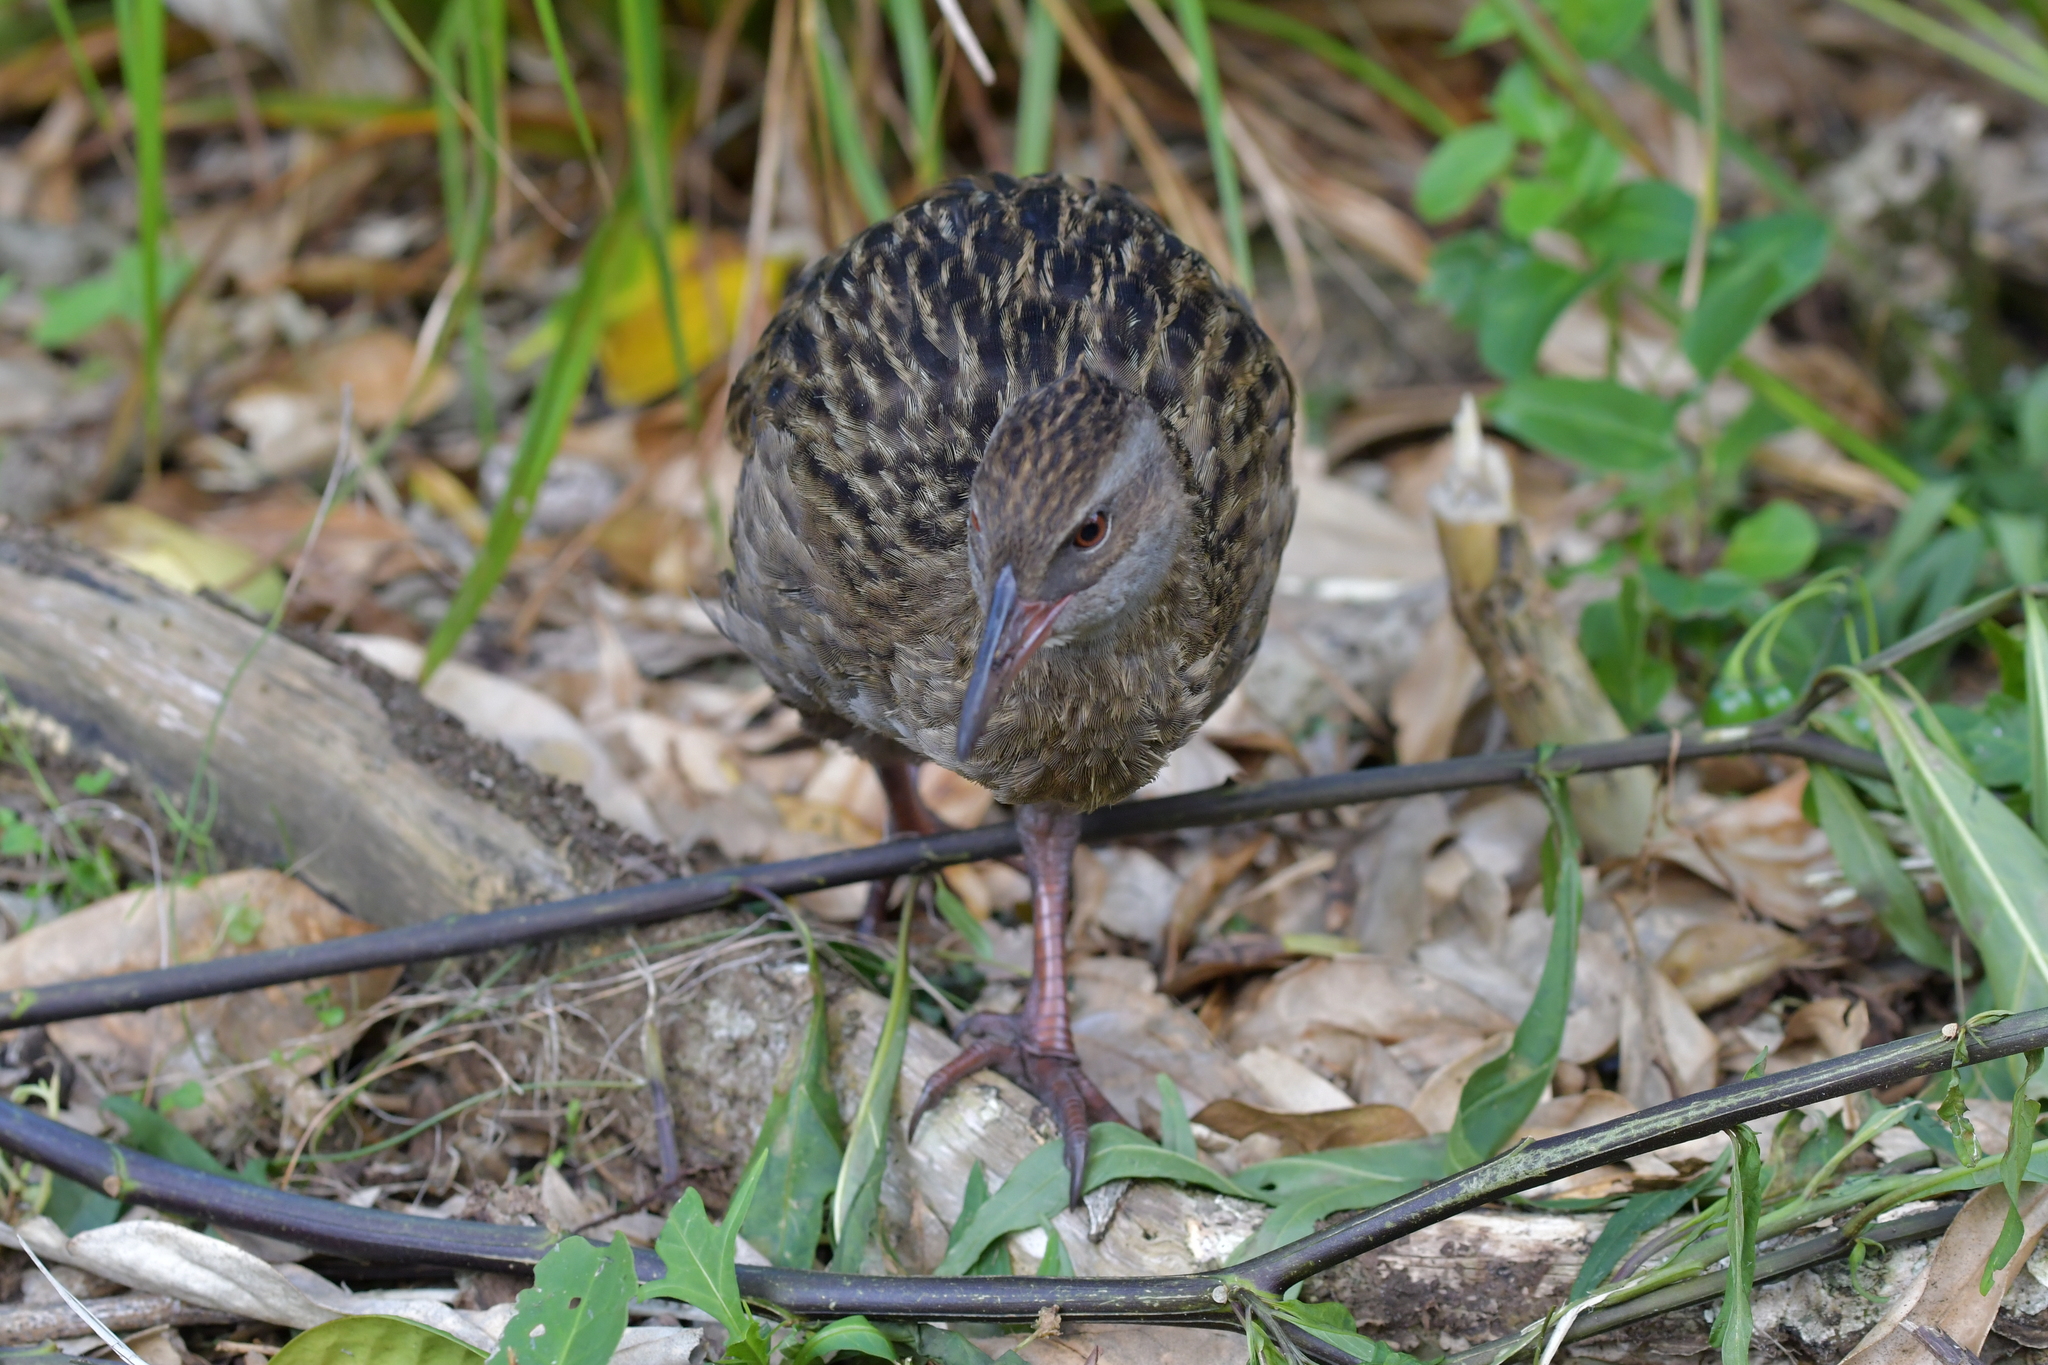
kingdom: Animalia
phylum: Chordata
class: Aves
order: Gruiformes
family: Rallidae
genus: Gallirallus
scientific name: Gallirallus australis
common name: Weka
